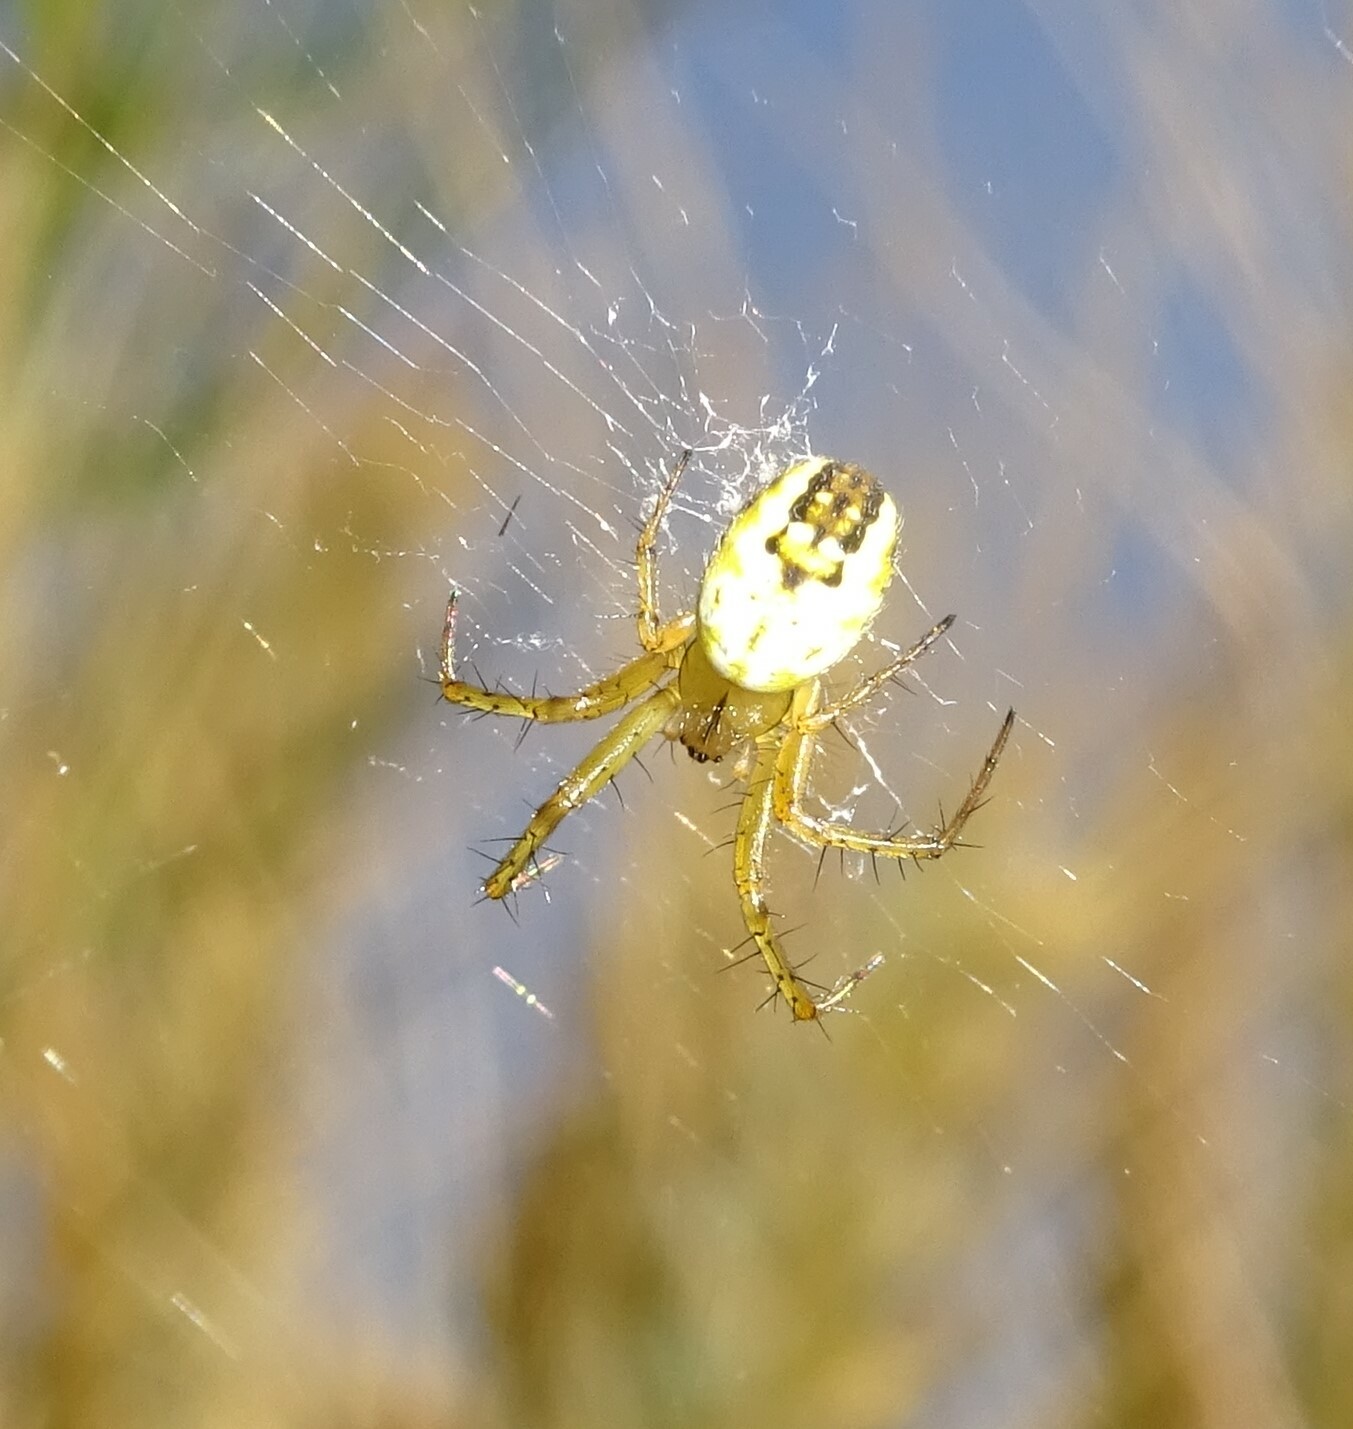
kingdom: Animalia
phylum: Arthropoda
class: Arachnida
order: Araneae
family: Araneidae
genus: Mangora
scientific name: Mangora acalypha
